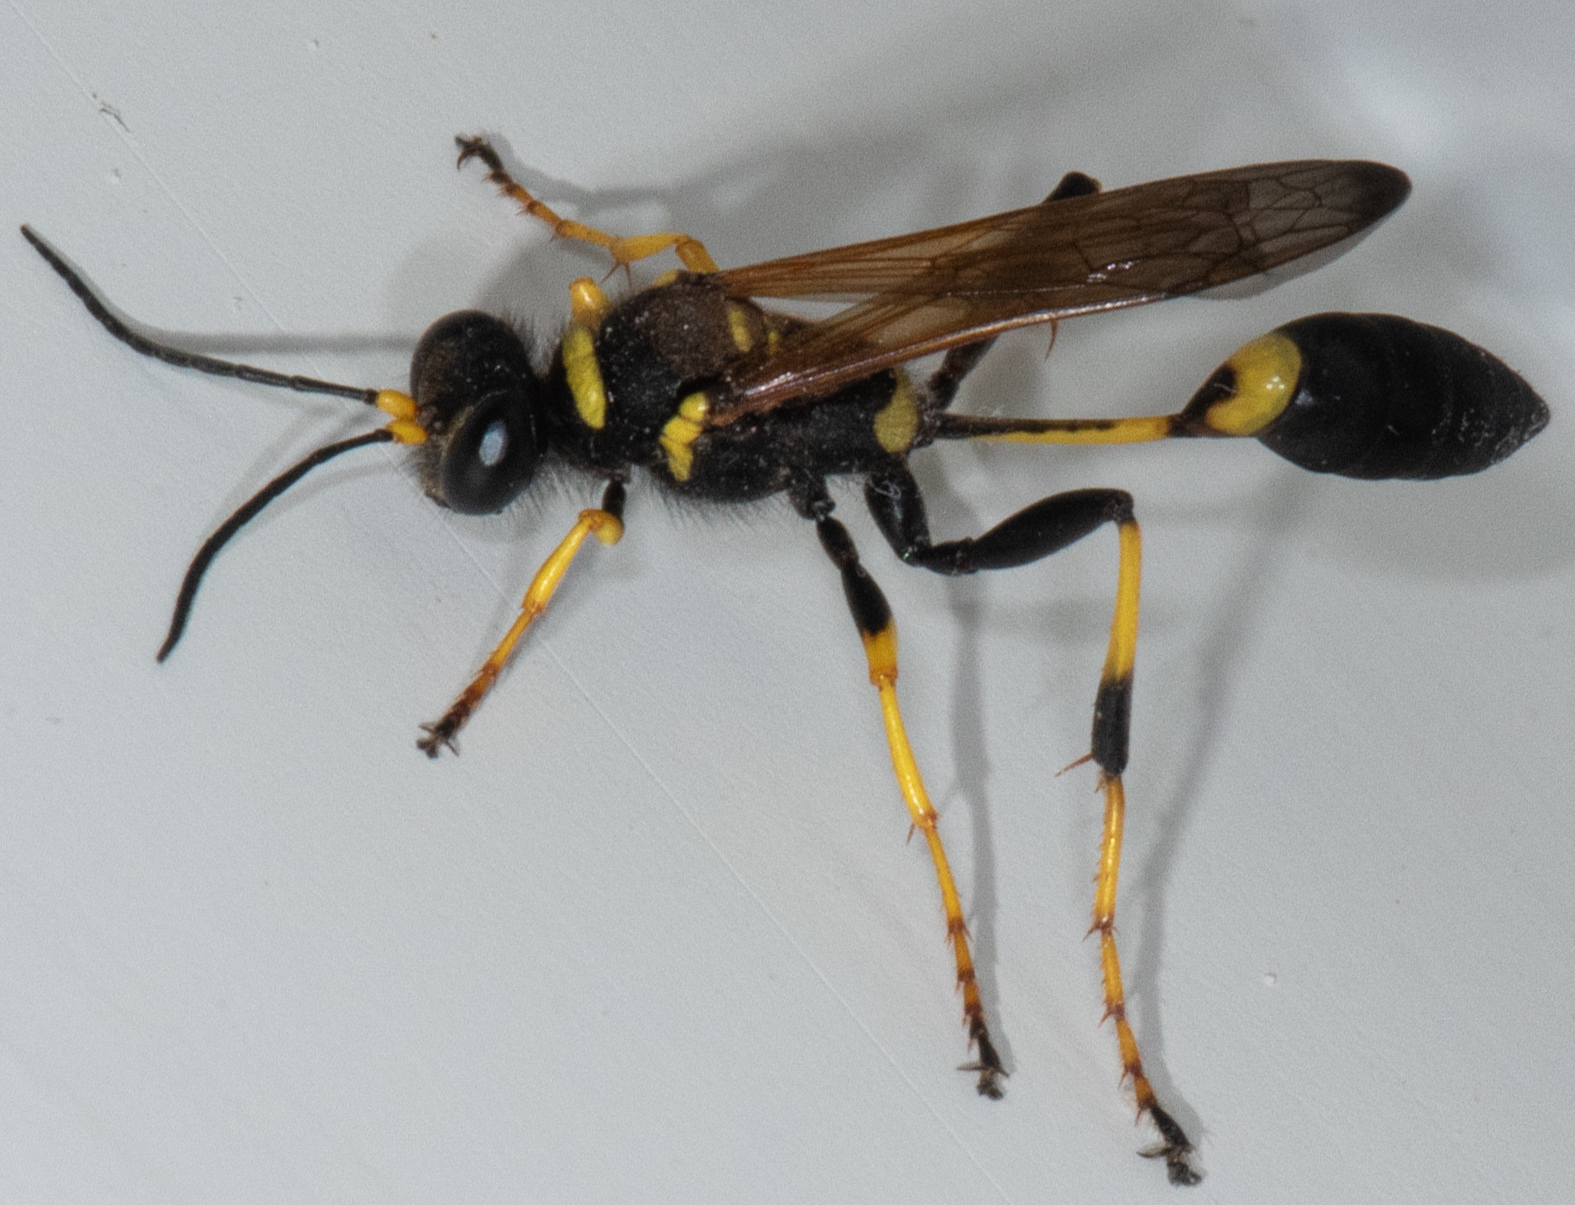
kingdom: Animalia
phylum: Arthropoda
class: Insecta
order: Hymenoptera
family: Sphecidae
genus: Sceliphron
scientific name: Sceliphron caementarium
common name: Mud dauber
